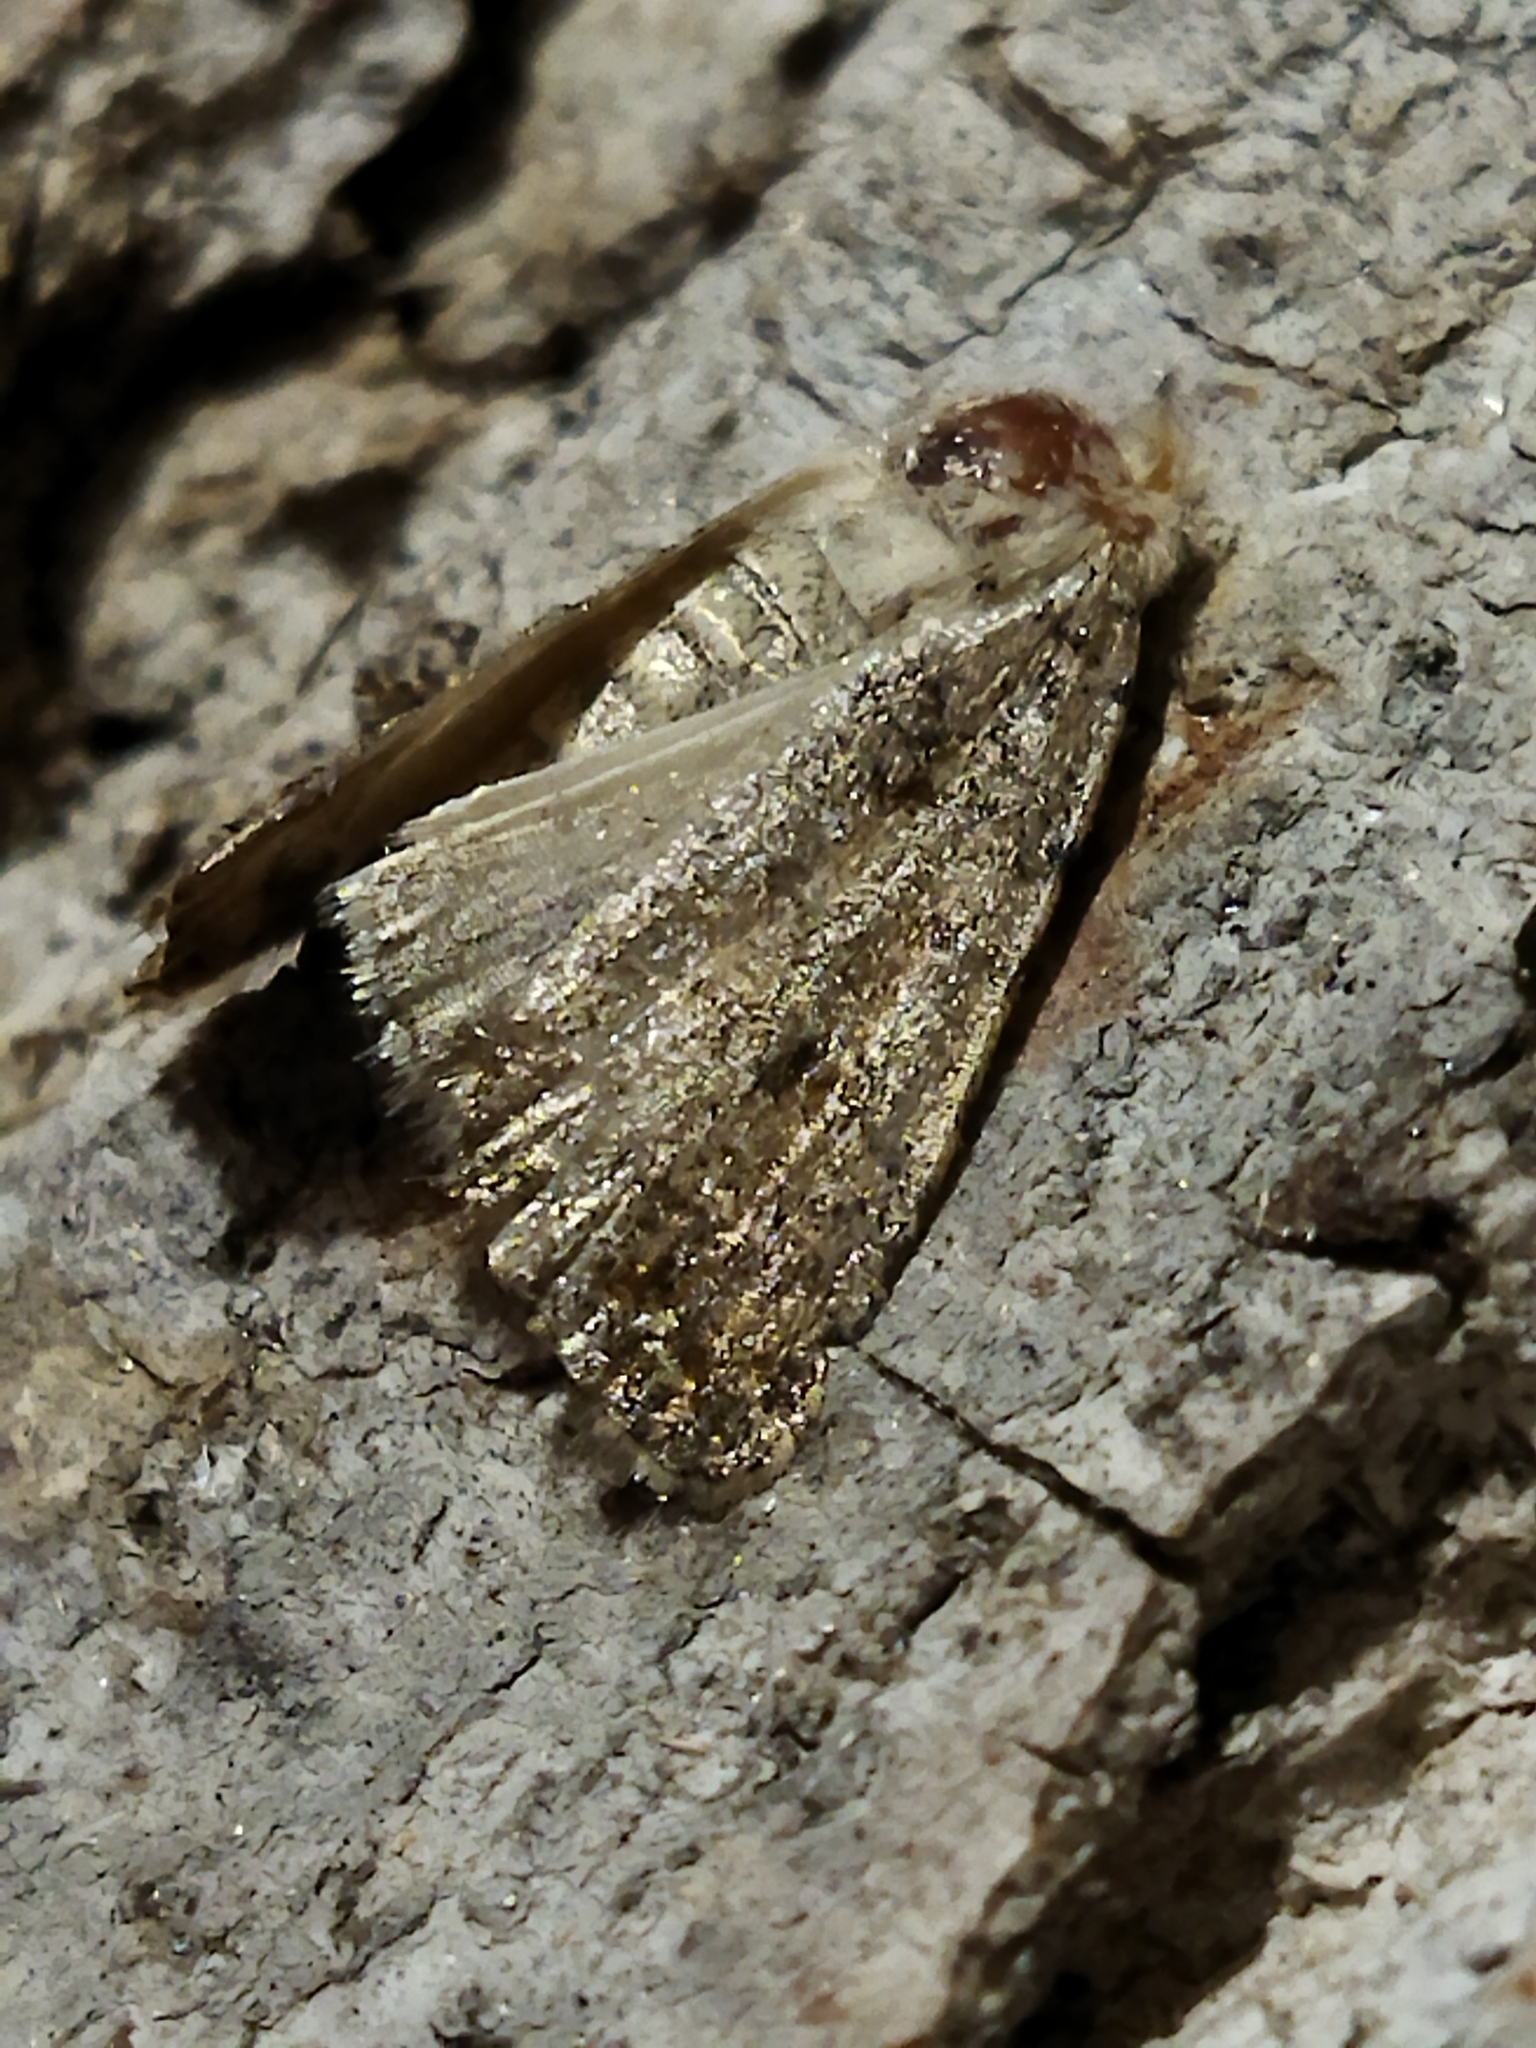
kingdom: Animalia
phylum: Arthropoda
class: Insecta
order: Lepidoptera
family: Noctuidae
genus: Caradrina
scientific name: Caradrina
